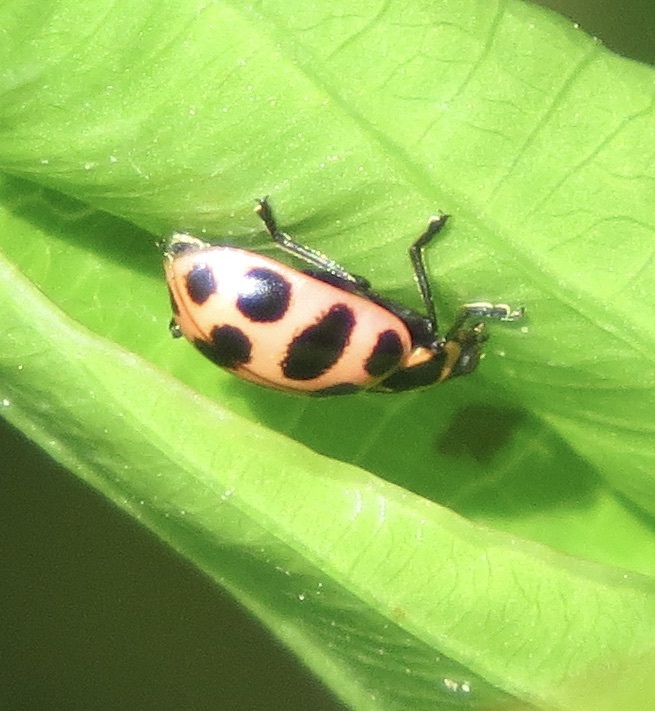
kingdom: Animalia
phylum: Arthropoda
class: Insecta
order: Coleoptera
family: Coccinellidae
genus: Coleomegilla
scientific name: Coleomegilla maculata
